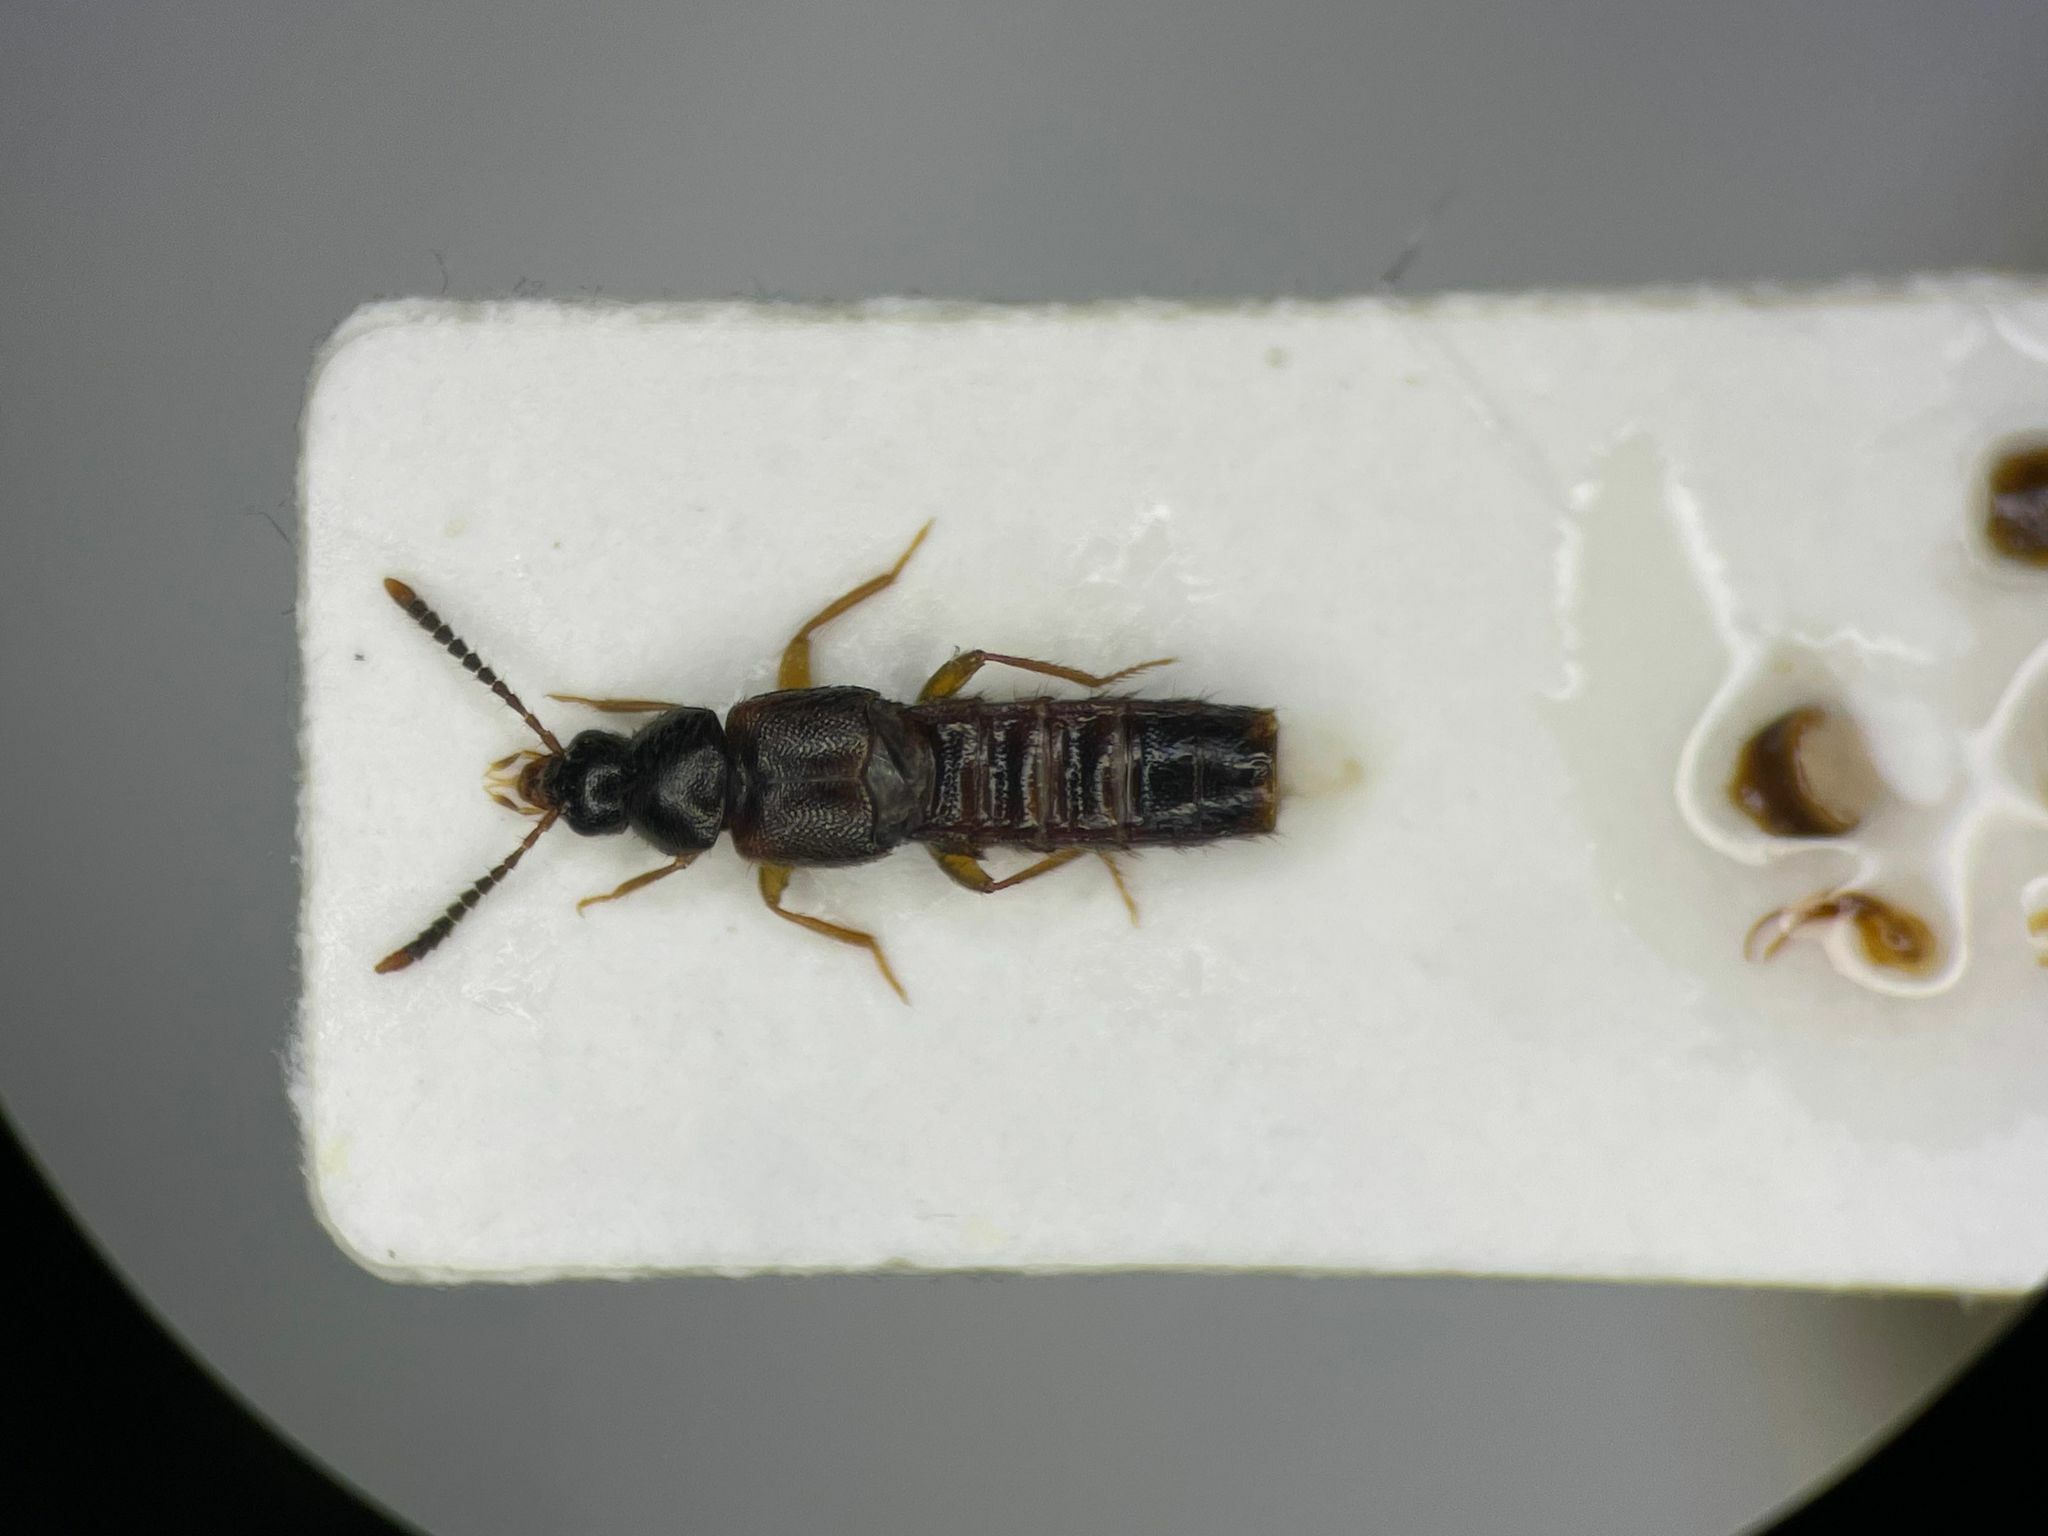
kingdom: Animalia
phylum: Arthropoda
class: Insecta
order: Coleoptera
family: Staphylinidae
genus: Silusa
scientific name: Silusa alternans
